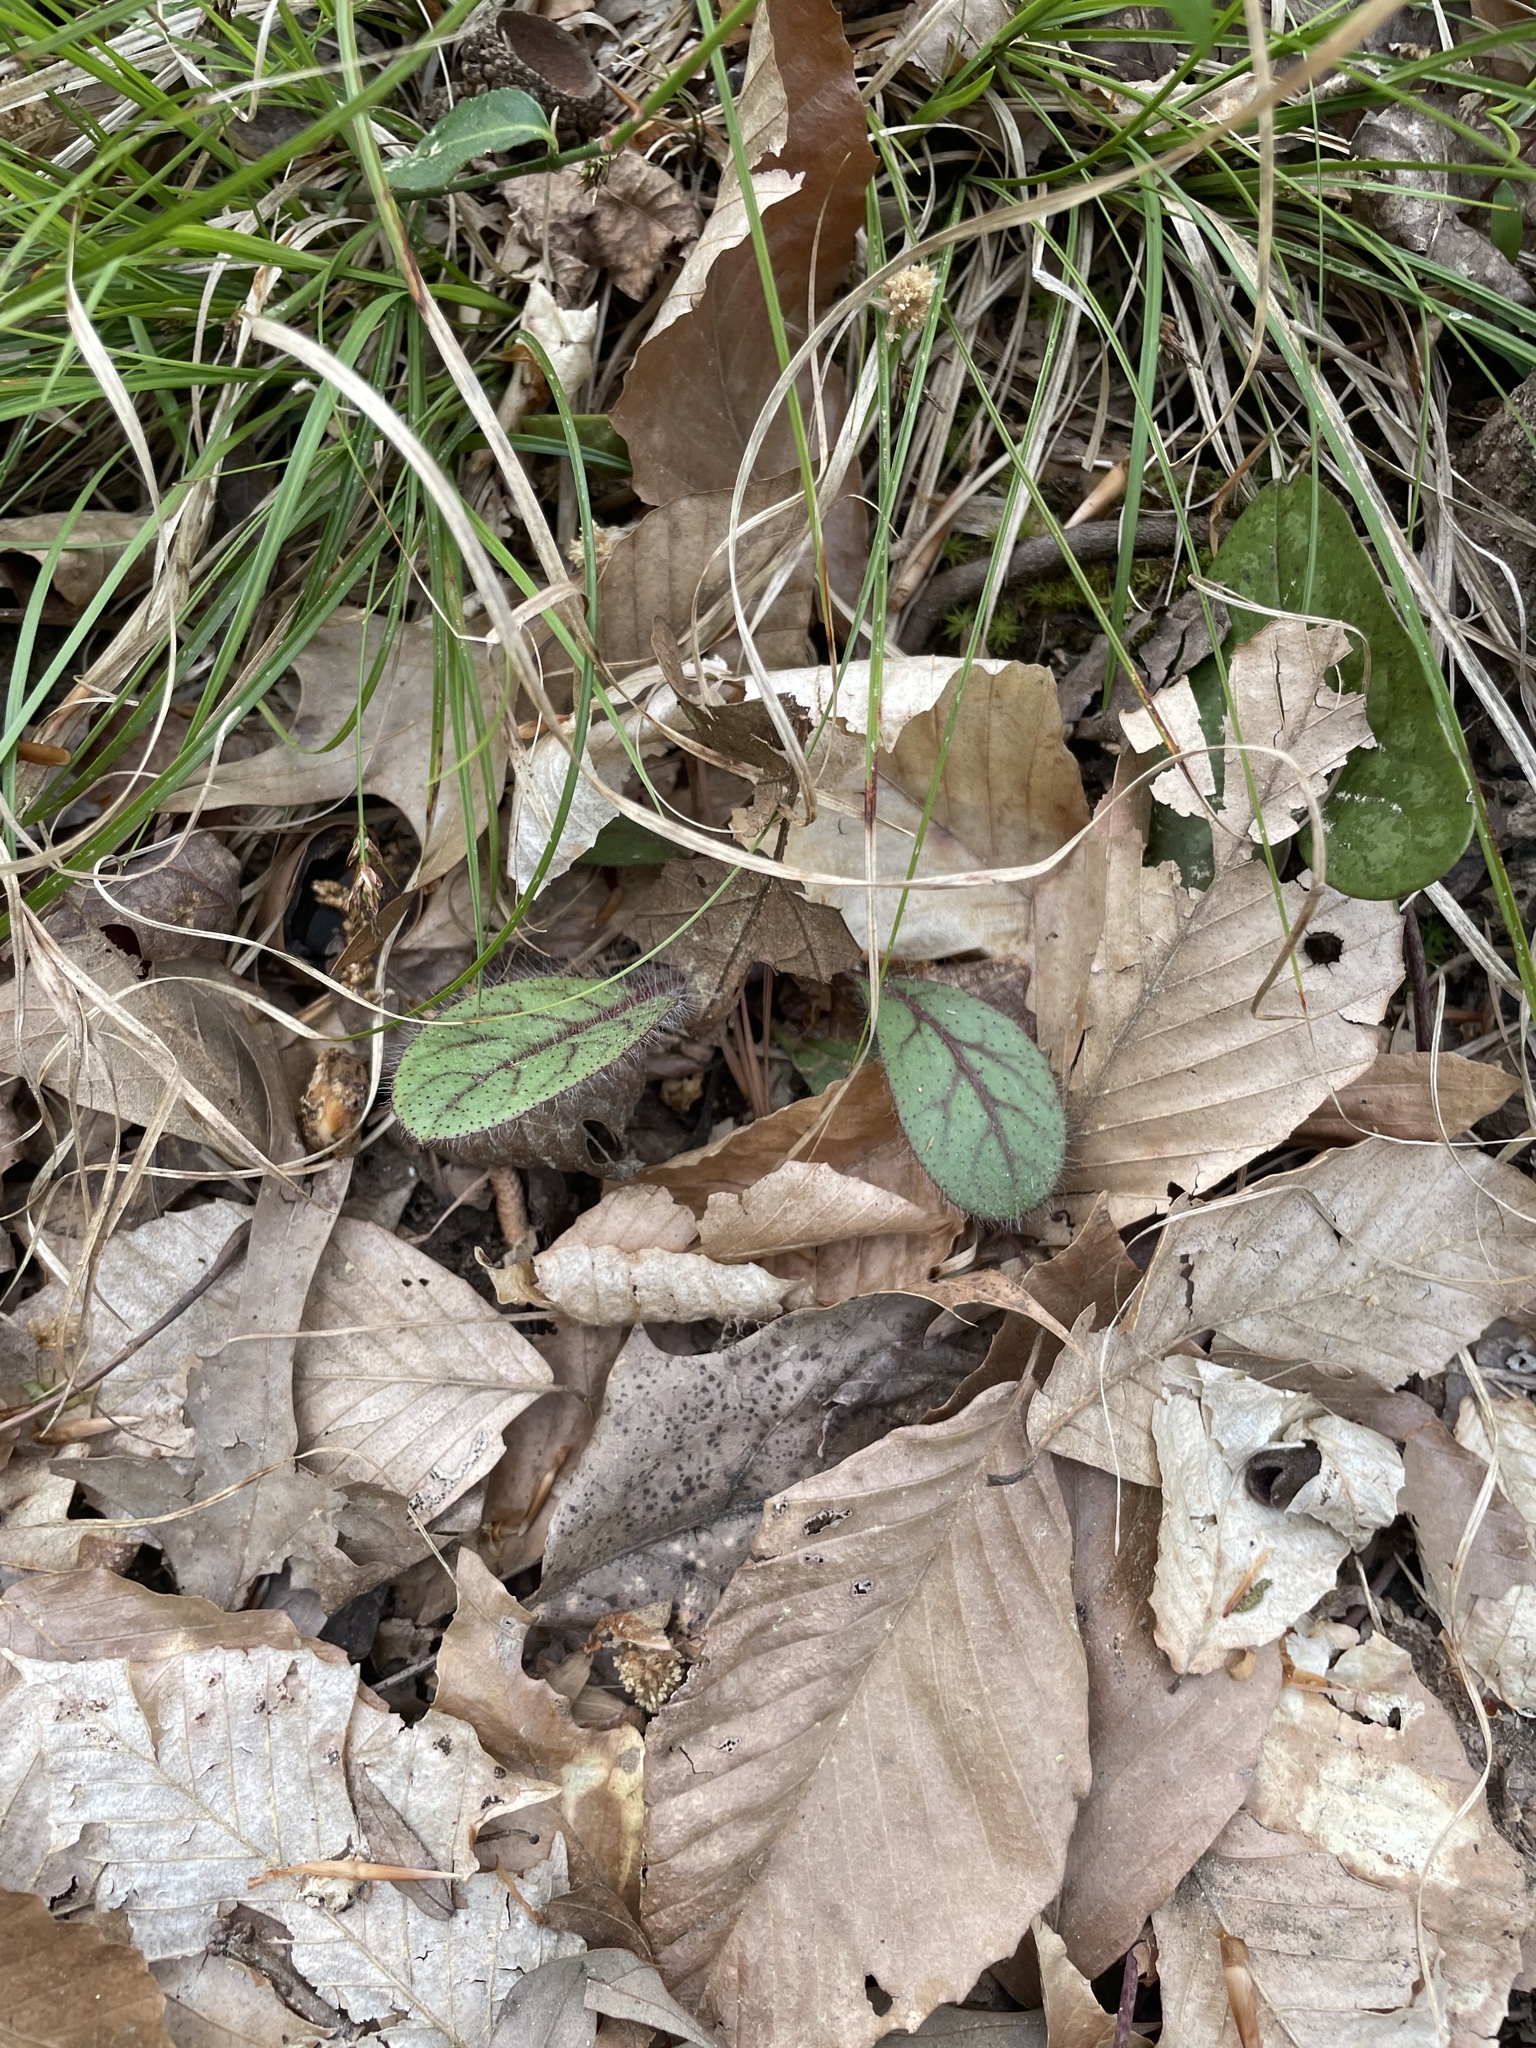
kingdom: Plantae
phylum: Tracheophyta
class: Magnoliopsida
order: Asterales
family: Asteraceae
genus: Hieracium
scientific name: Hieracium venosum
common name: Rattlesnake hawkweed
